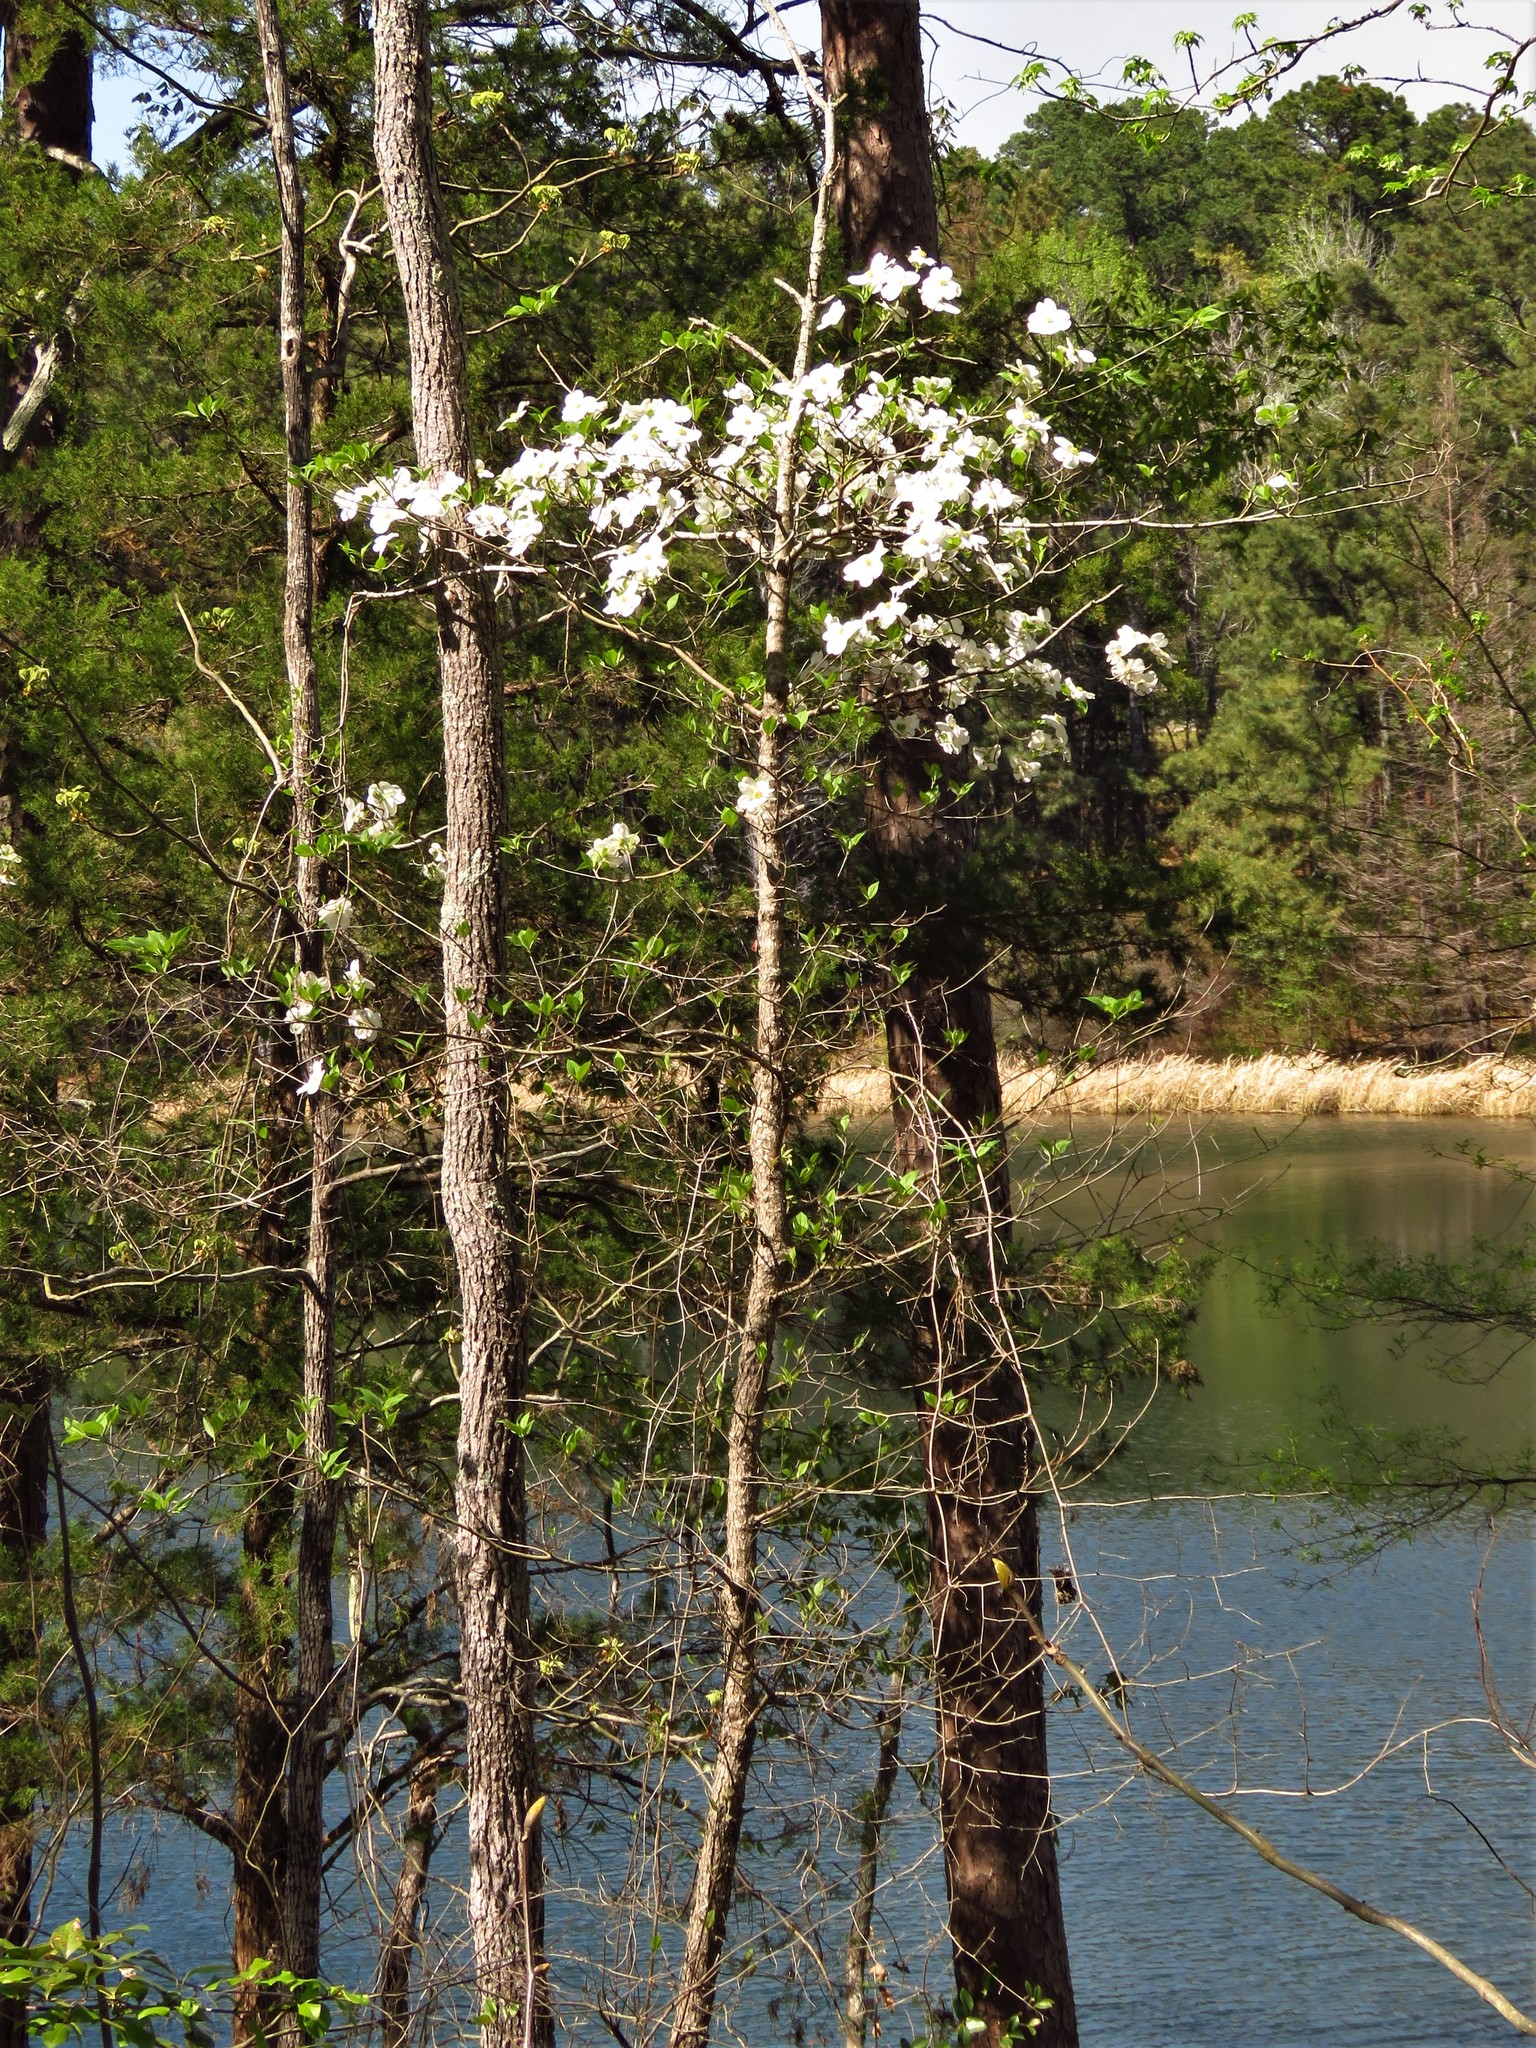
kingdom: Plantae
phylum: Tracheophyta
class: Magnoliopsida
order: Cornales
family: Cornaceae
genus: Cornus
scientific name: Cornus florida
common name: Flowering dogwood
